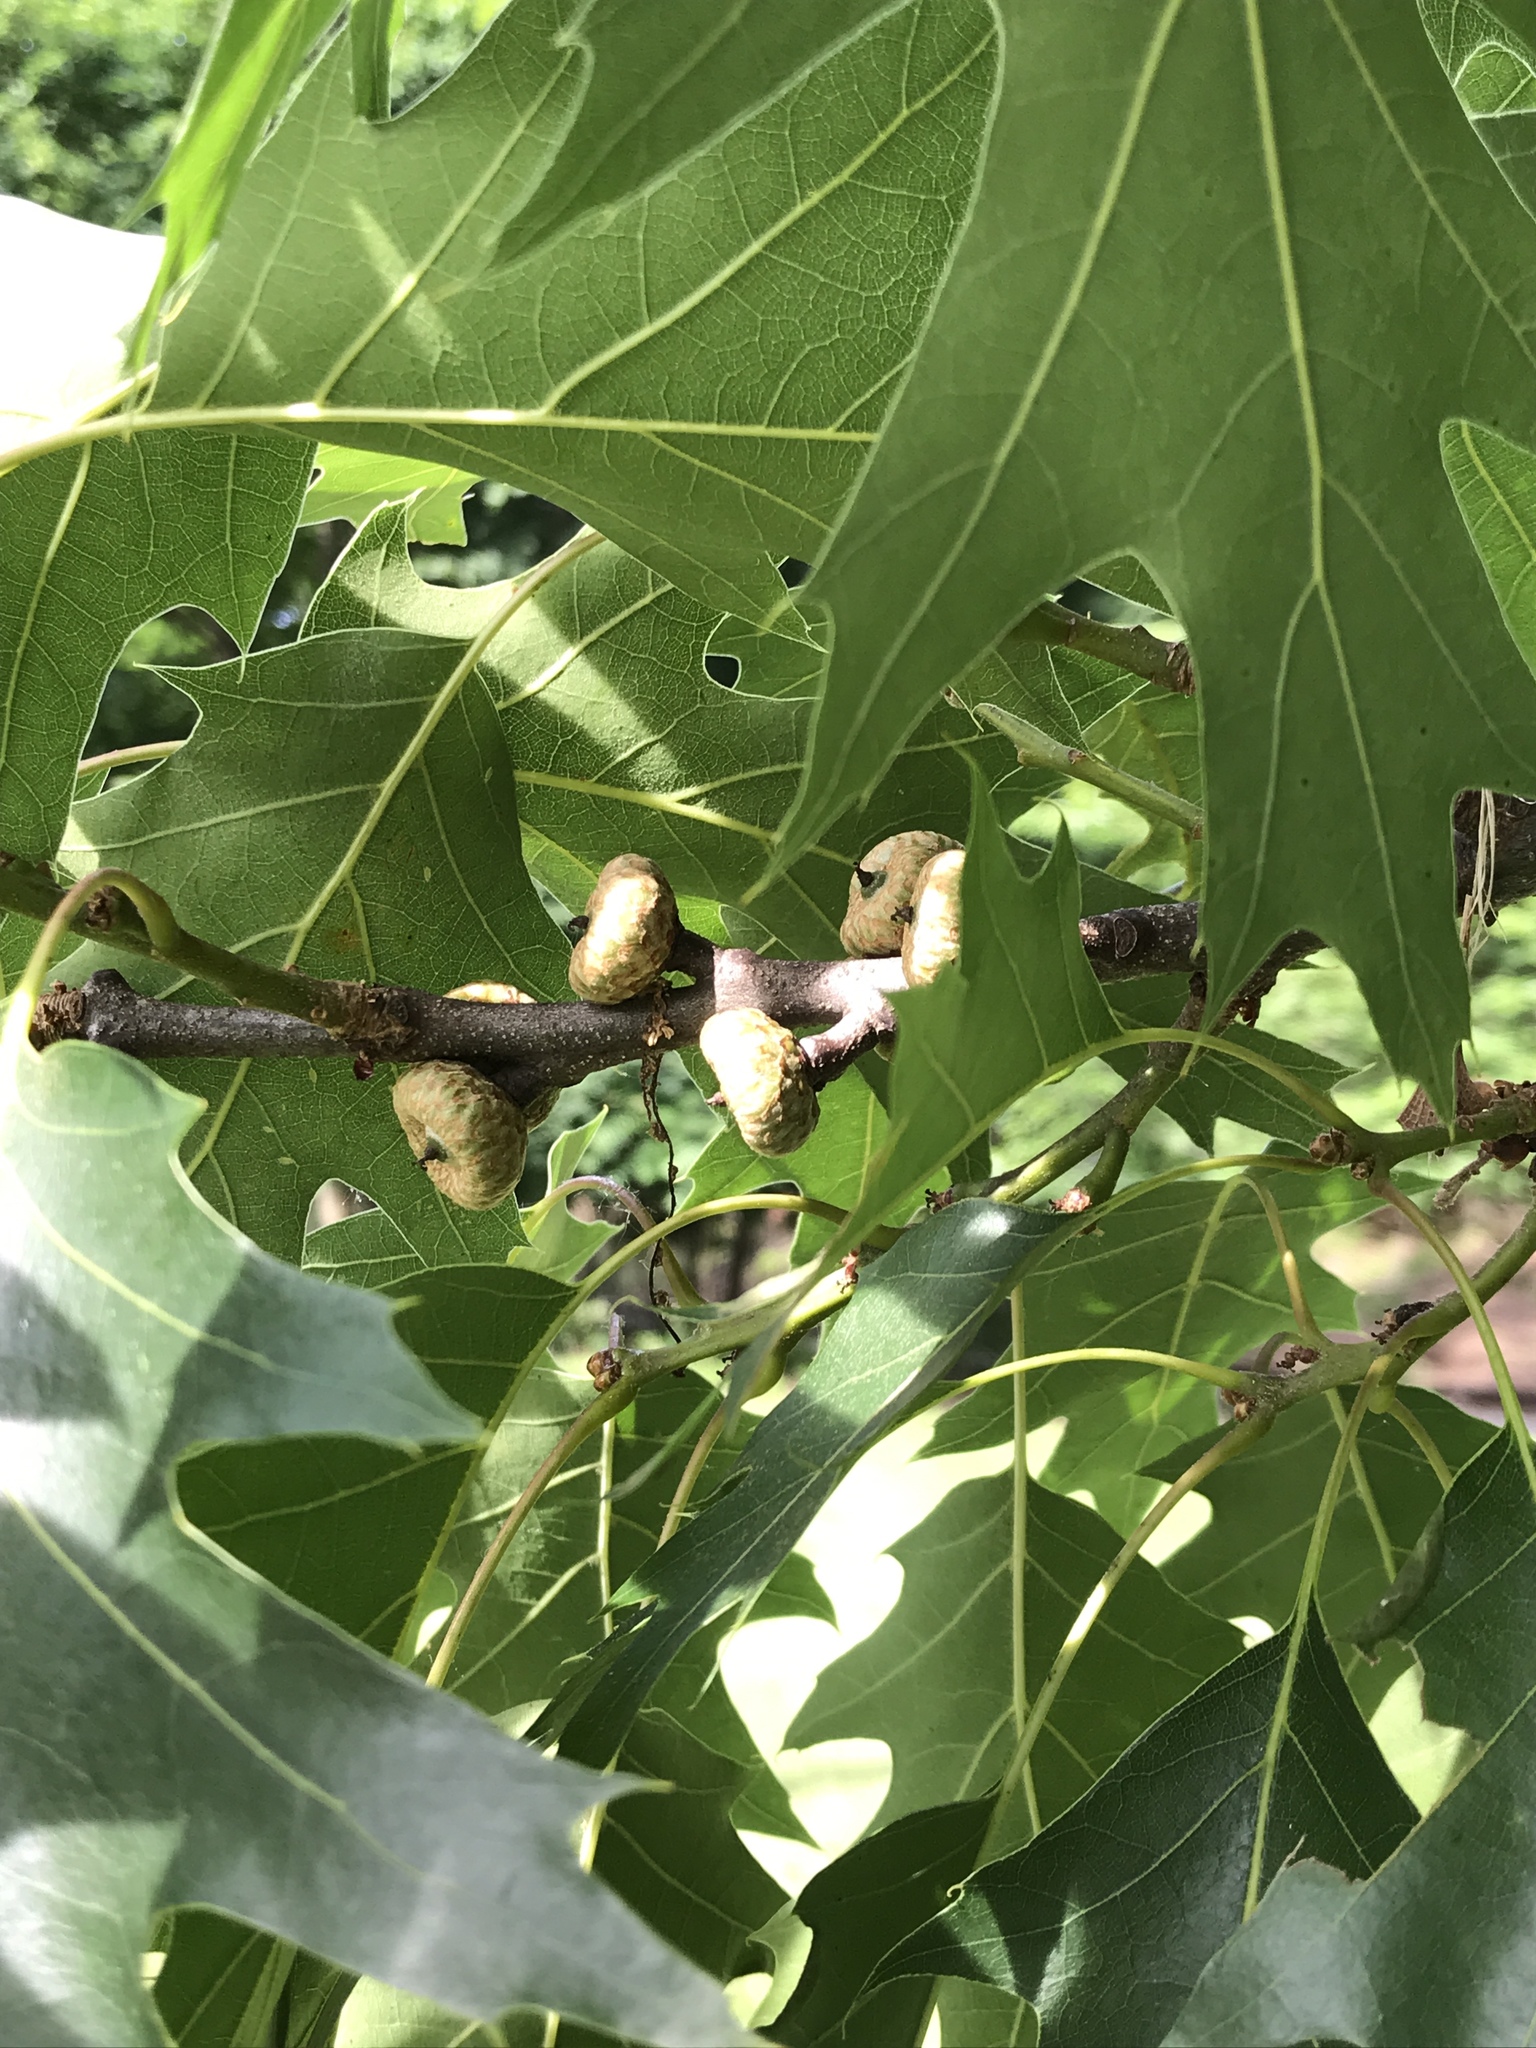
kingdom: Plantae
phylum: Tracheophyta
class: Magnoliopsida
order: Fagales
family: Fagaceae
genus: Quercus
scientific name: Quercus rubra
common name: Red oak
